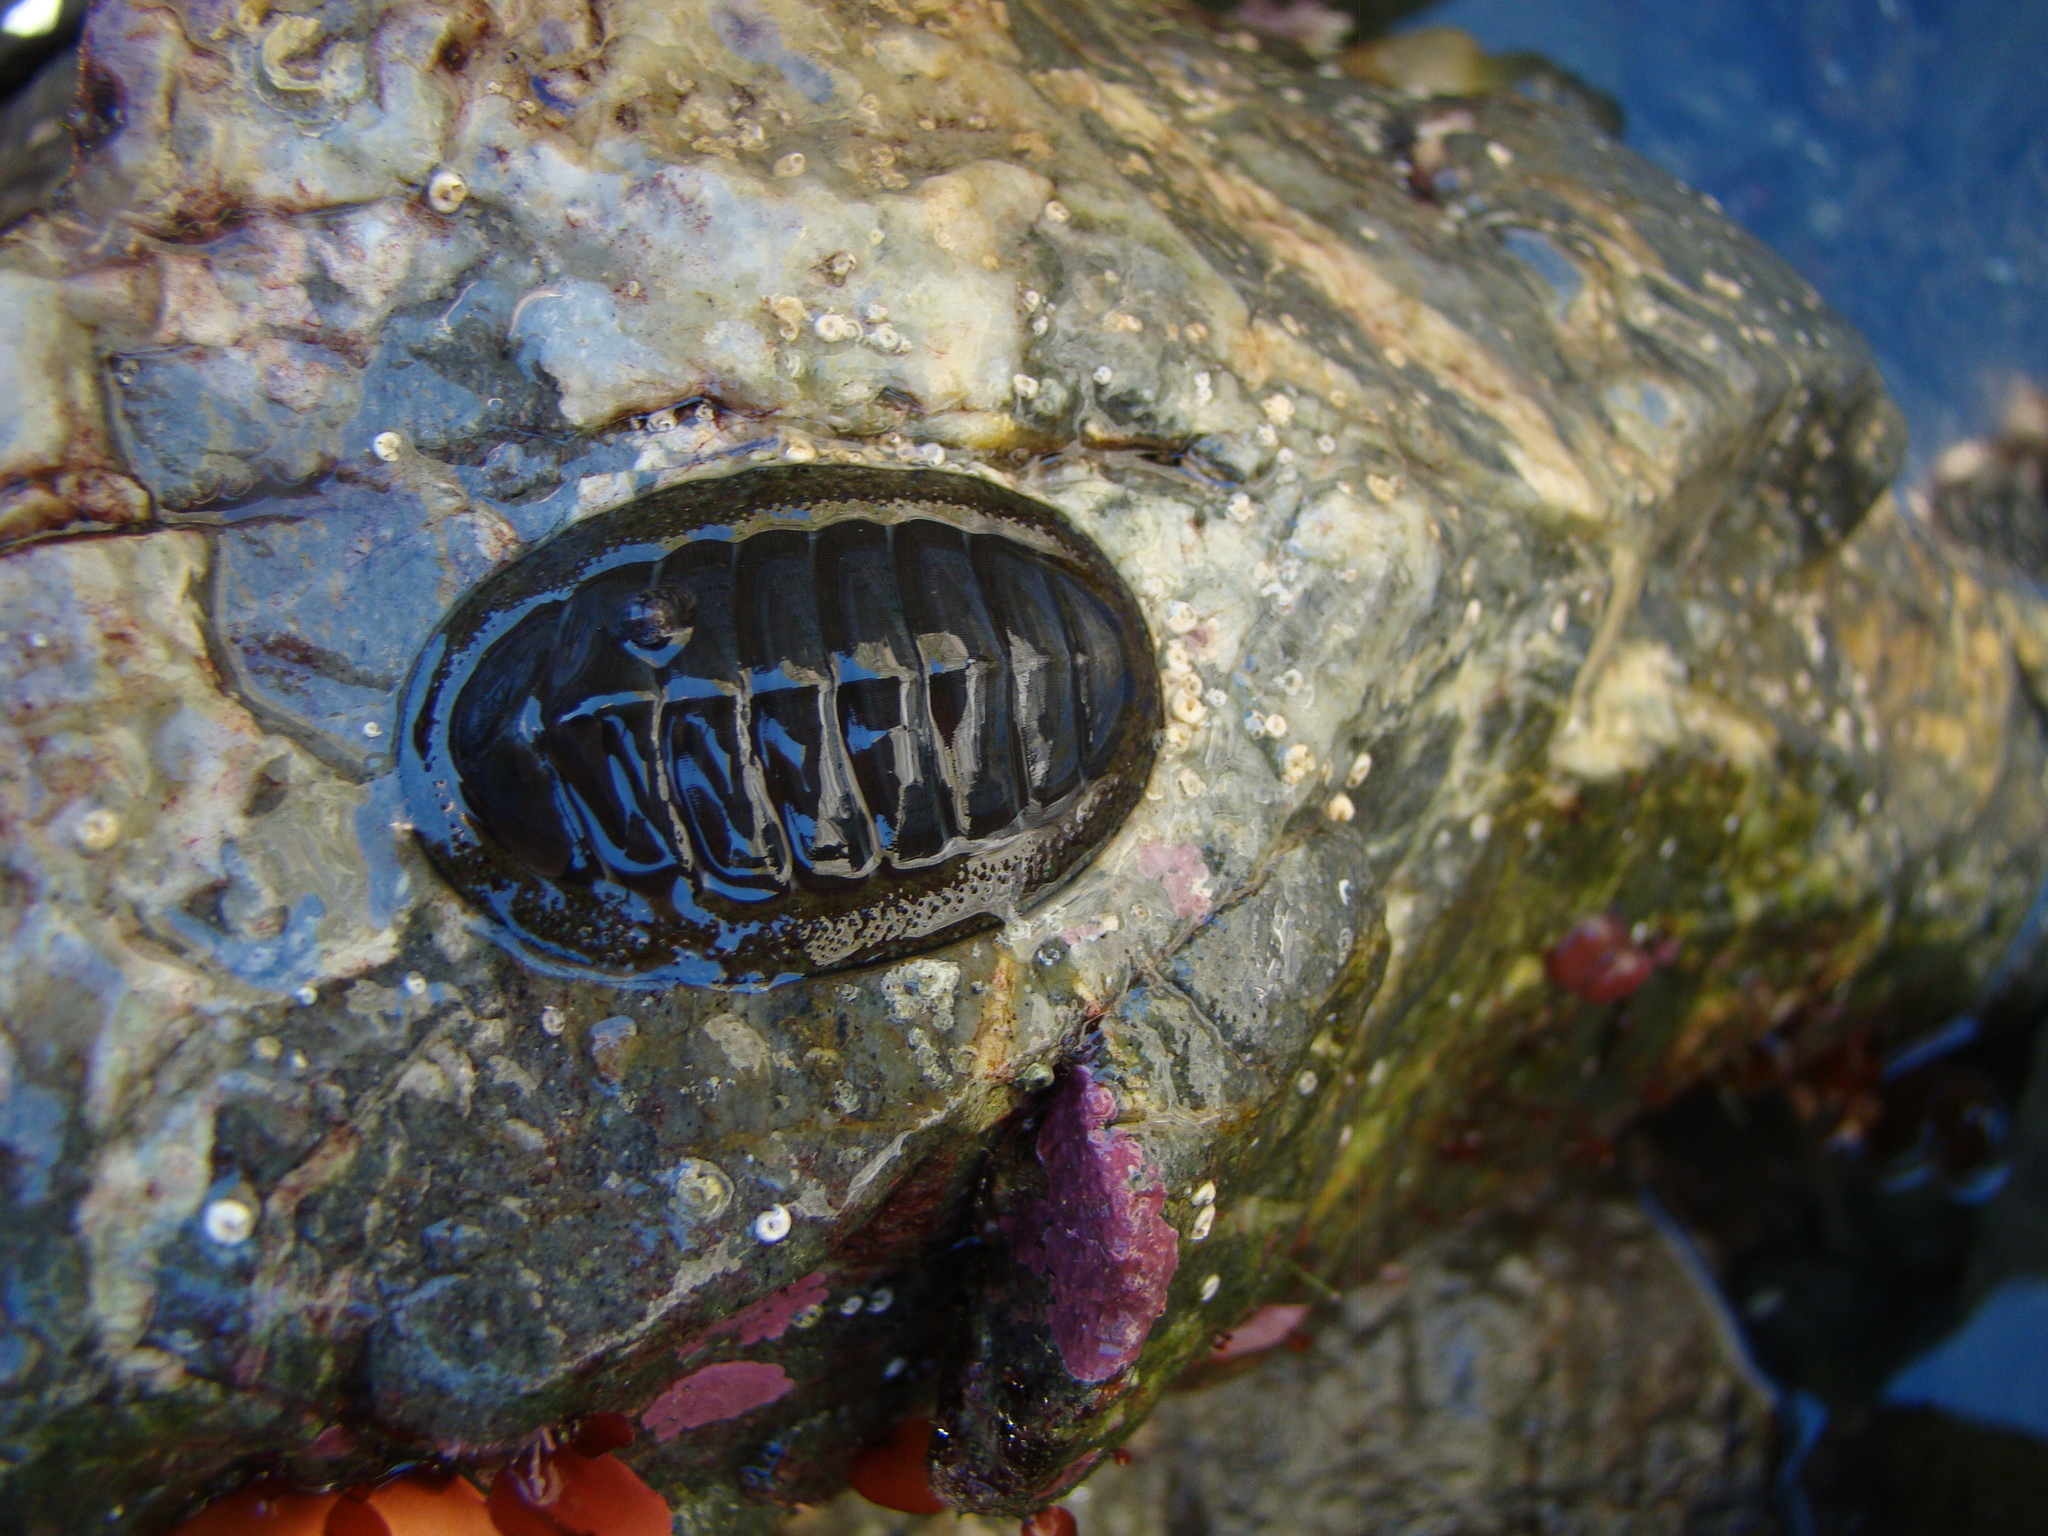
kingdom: Animalia
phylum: Mollusca
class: Polyplacophora
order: Chitonida
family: Chitonidae
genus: Chiton
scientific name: Chiton glaucus
